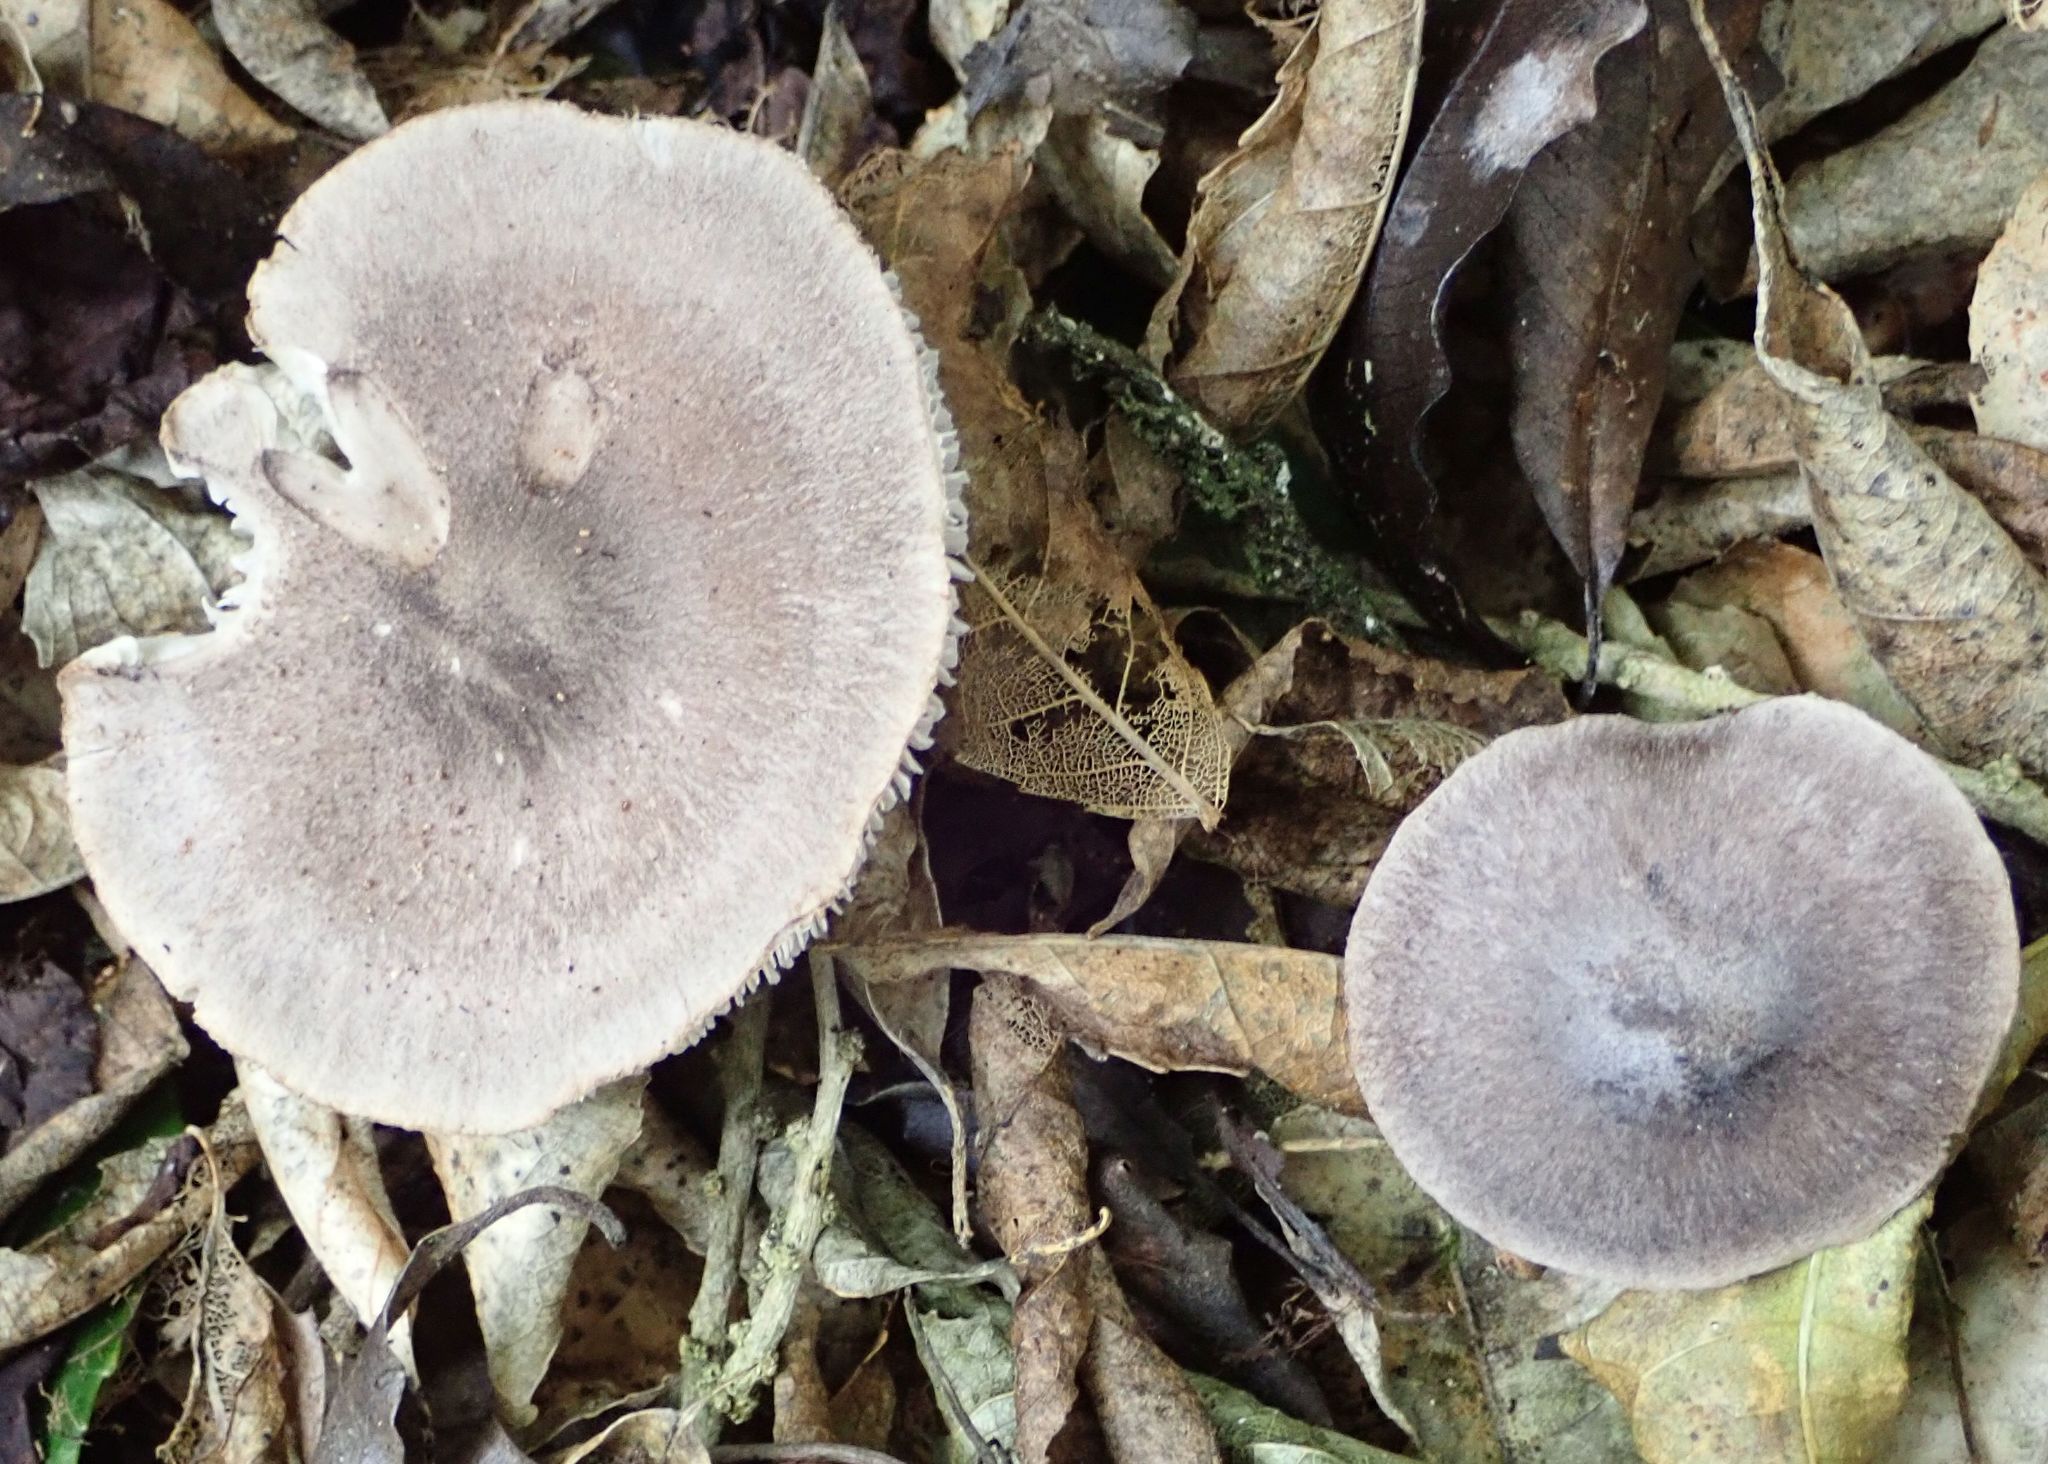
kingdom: Fungi
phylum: Basidiomycota
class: Agaricomycetes
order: Agaricales
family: Tricholomataceae
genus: Tricholoma
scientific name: Tricholoma terreum
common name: Grey knight
